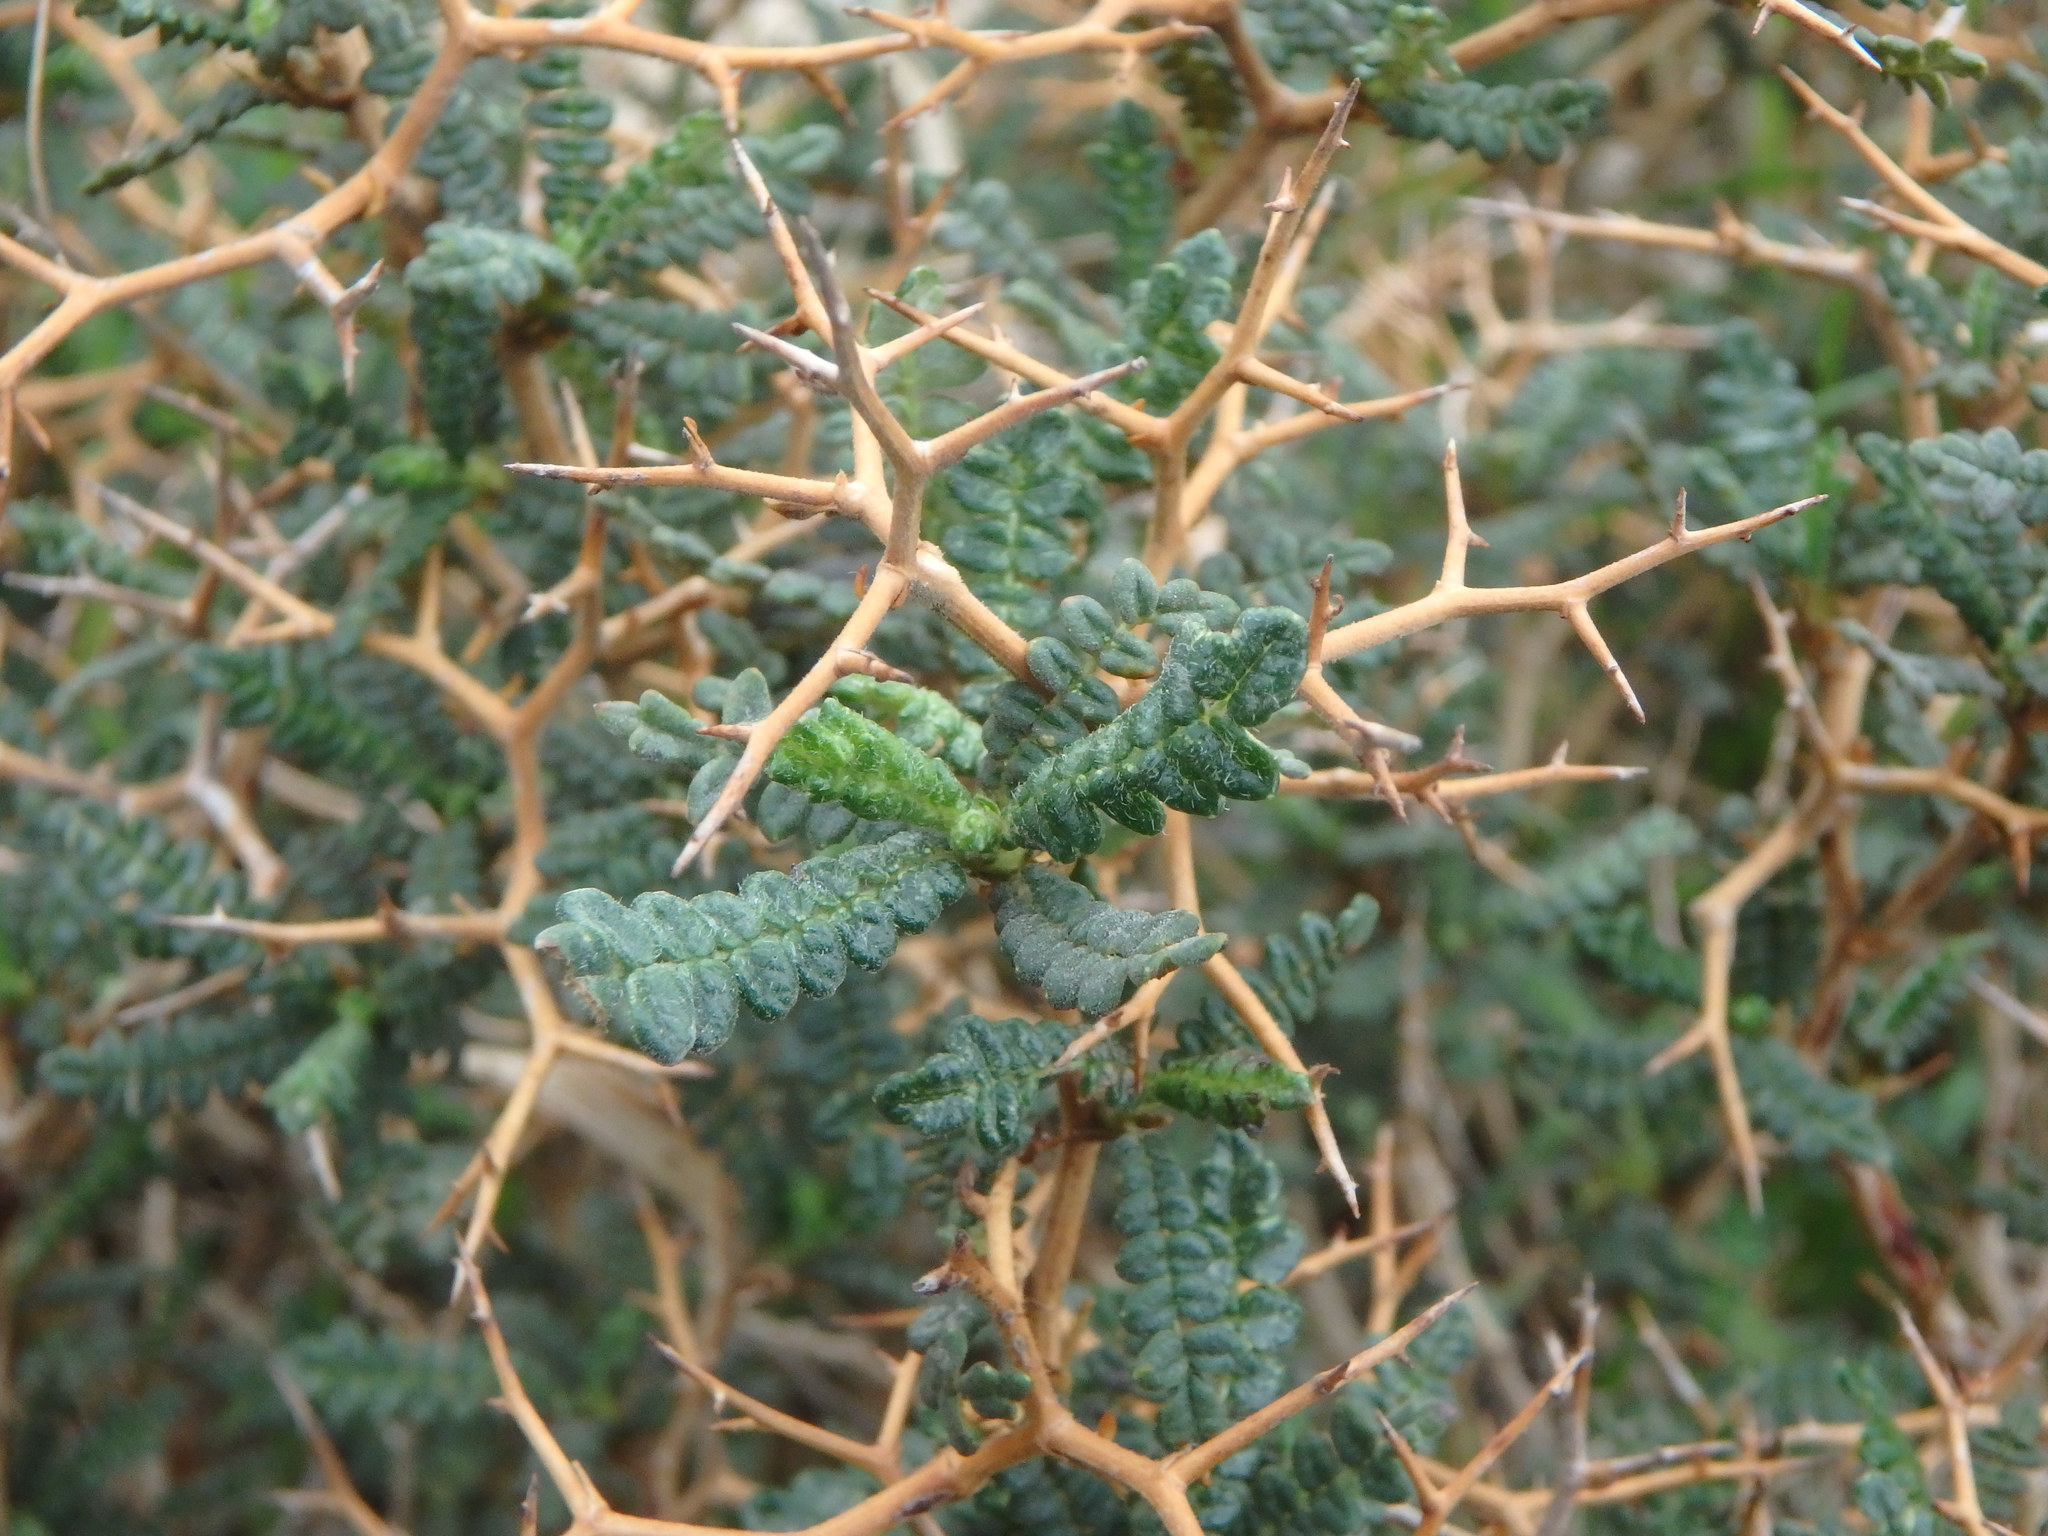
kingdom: Plantae
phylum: Tracheophyta
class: Magnoliopsida
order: Rosales
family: Rosaceae
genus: Sarcopoterium
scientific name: Sarcopoterium spinosum
